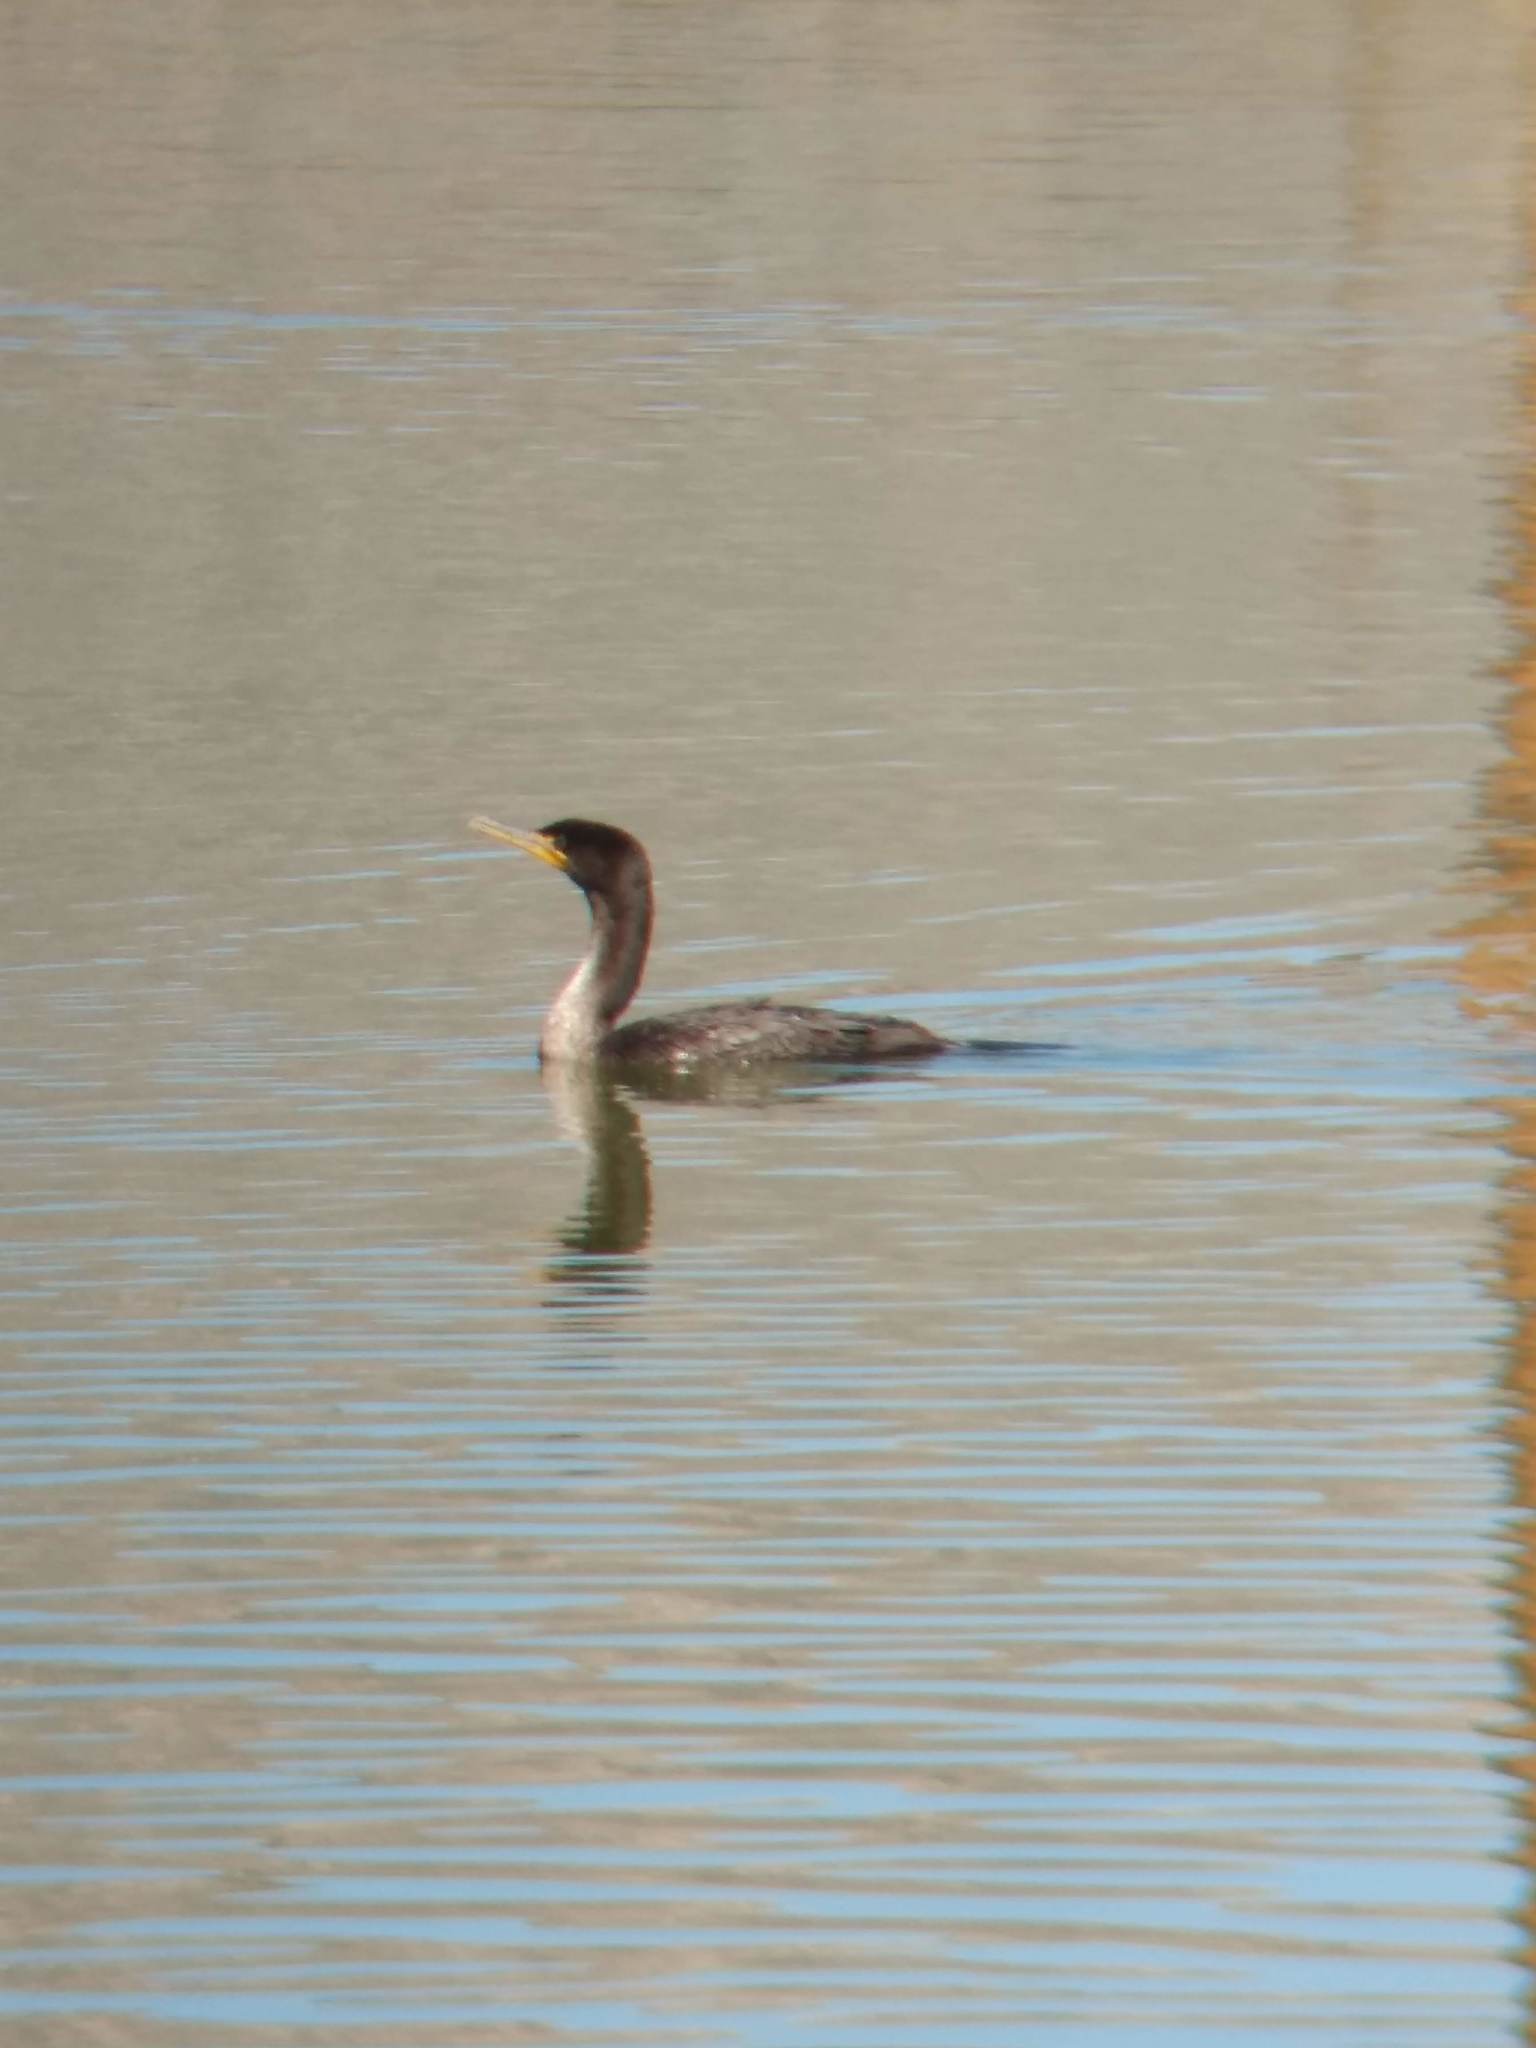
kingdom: Animalia
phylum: Chordata
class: Aves
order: Suliformes
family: Phalacrocoracidae
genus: Phalacrocorax
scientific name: Phalacrocorax auritus
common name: Double-crested cormorant
